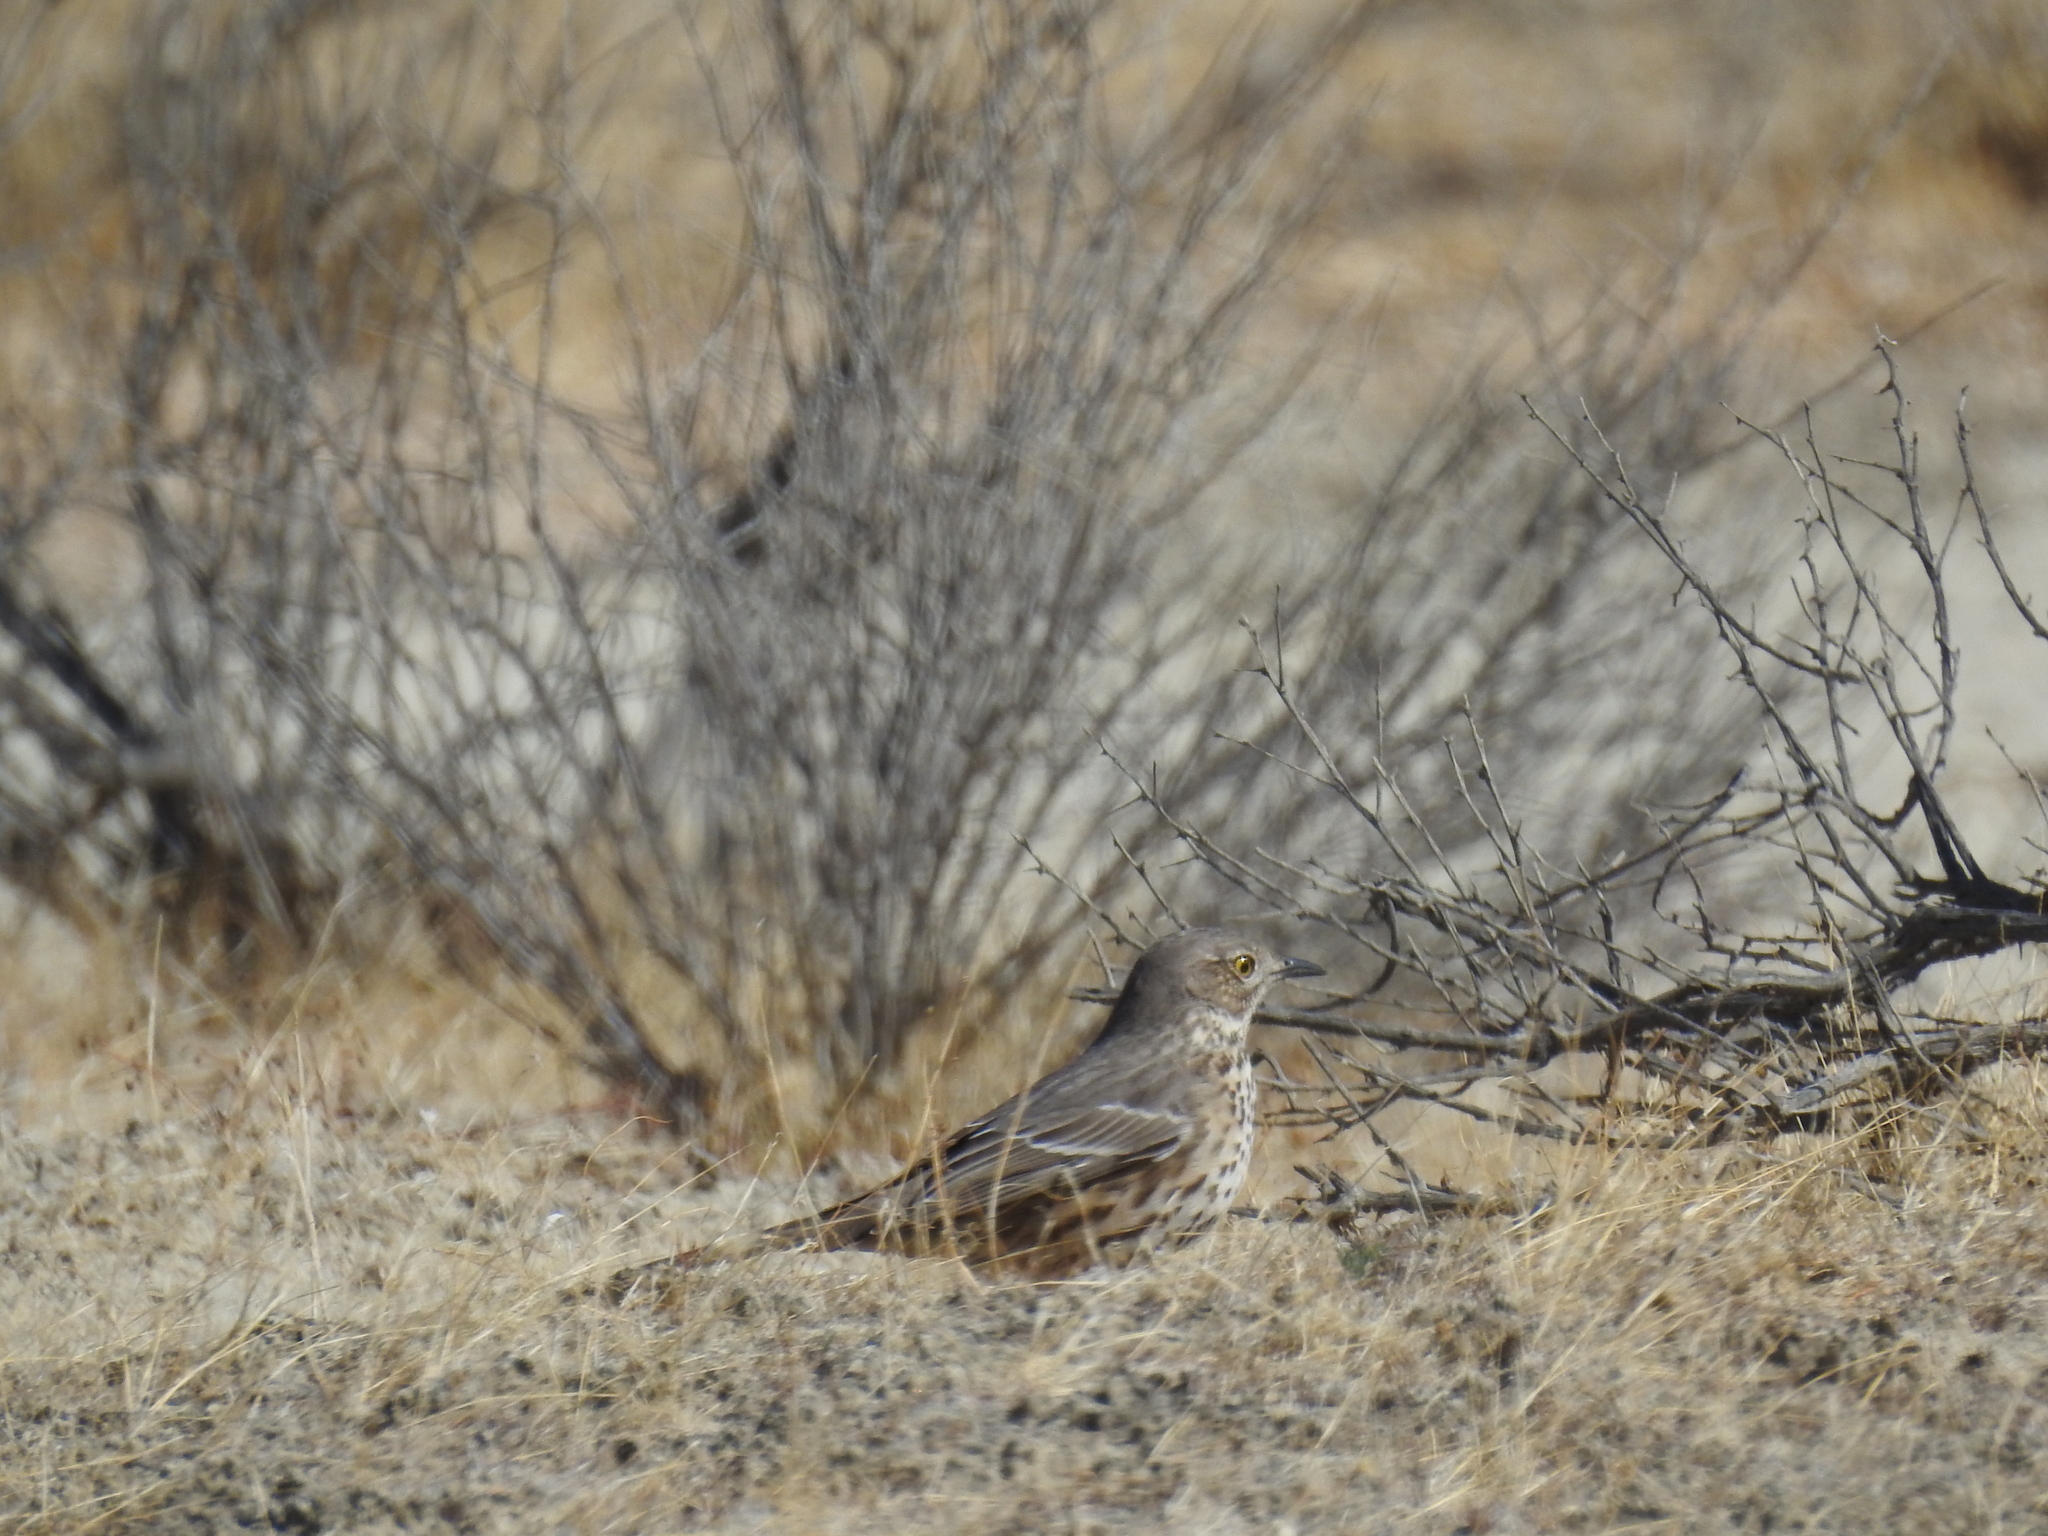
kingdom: Animalia
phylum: Chordata
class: Aves
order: Passeriformes
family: Mimidae
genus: Oreoscoptes
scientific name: Oreoscoptes montanus
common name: Sage thrasher
